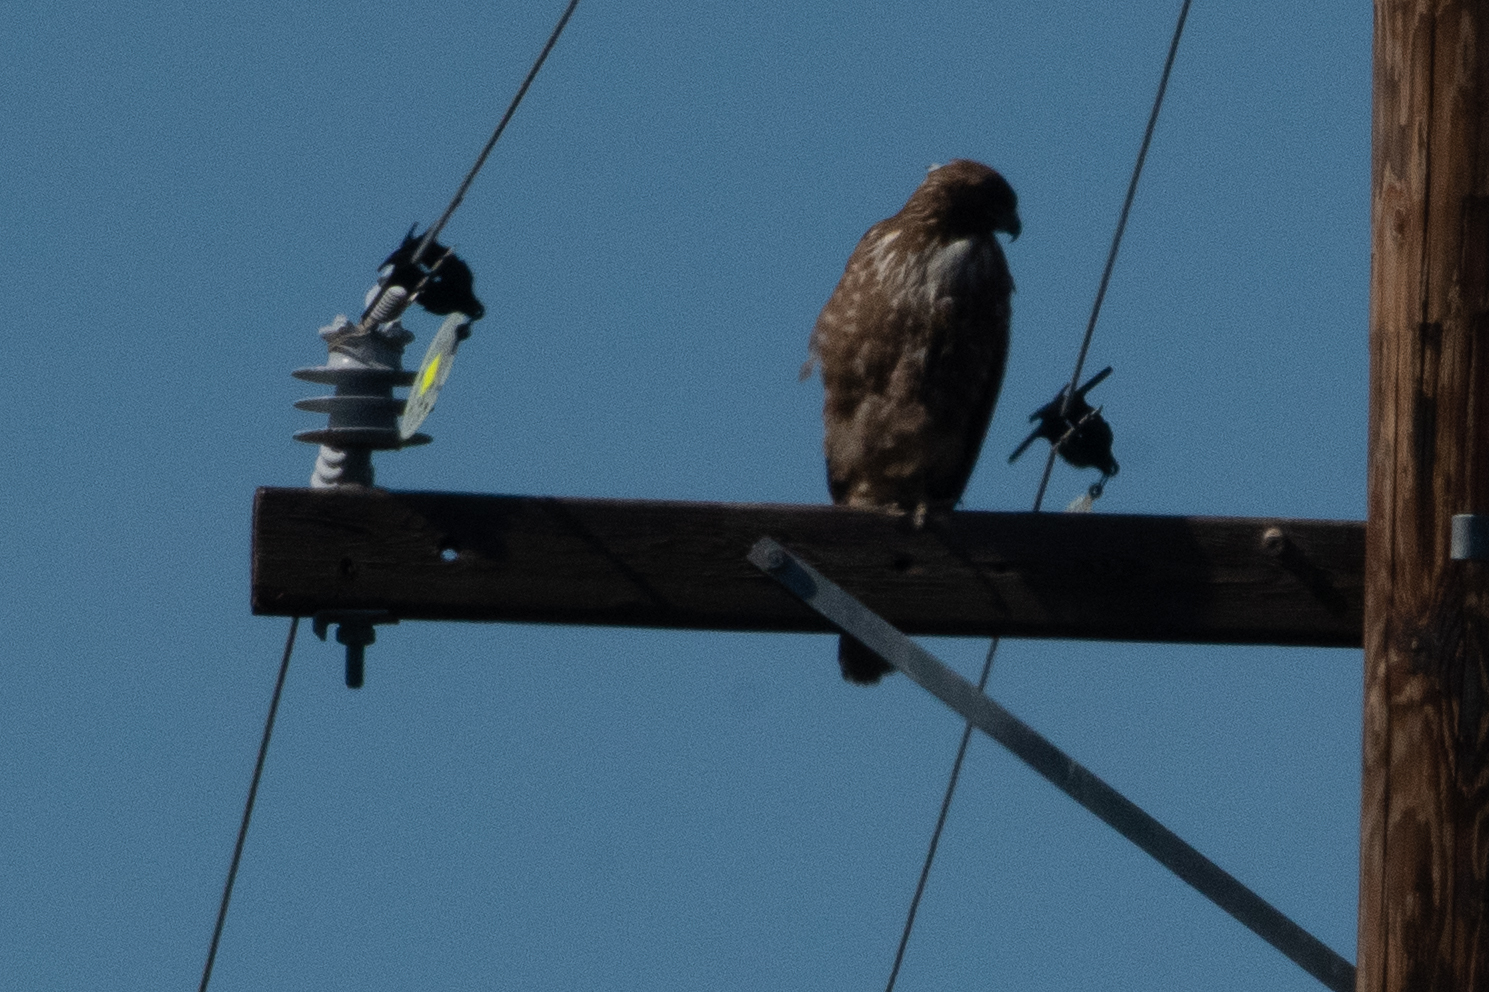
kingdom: Animalia
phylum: Chordata
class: Aves
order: Accipitriformes
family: Accipitridae
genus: Buteo
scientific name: Buteo lineatus
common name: Red-shouldered hawk
